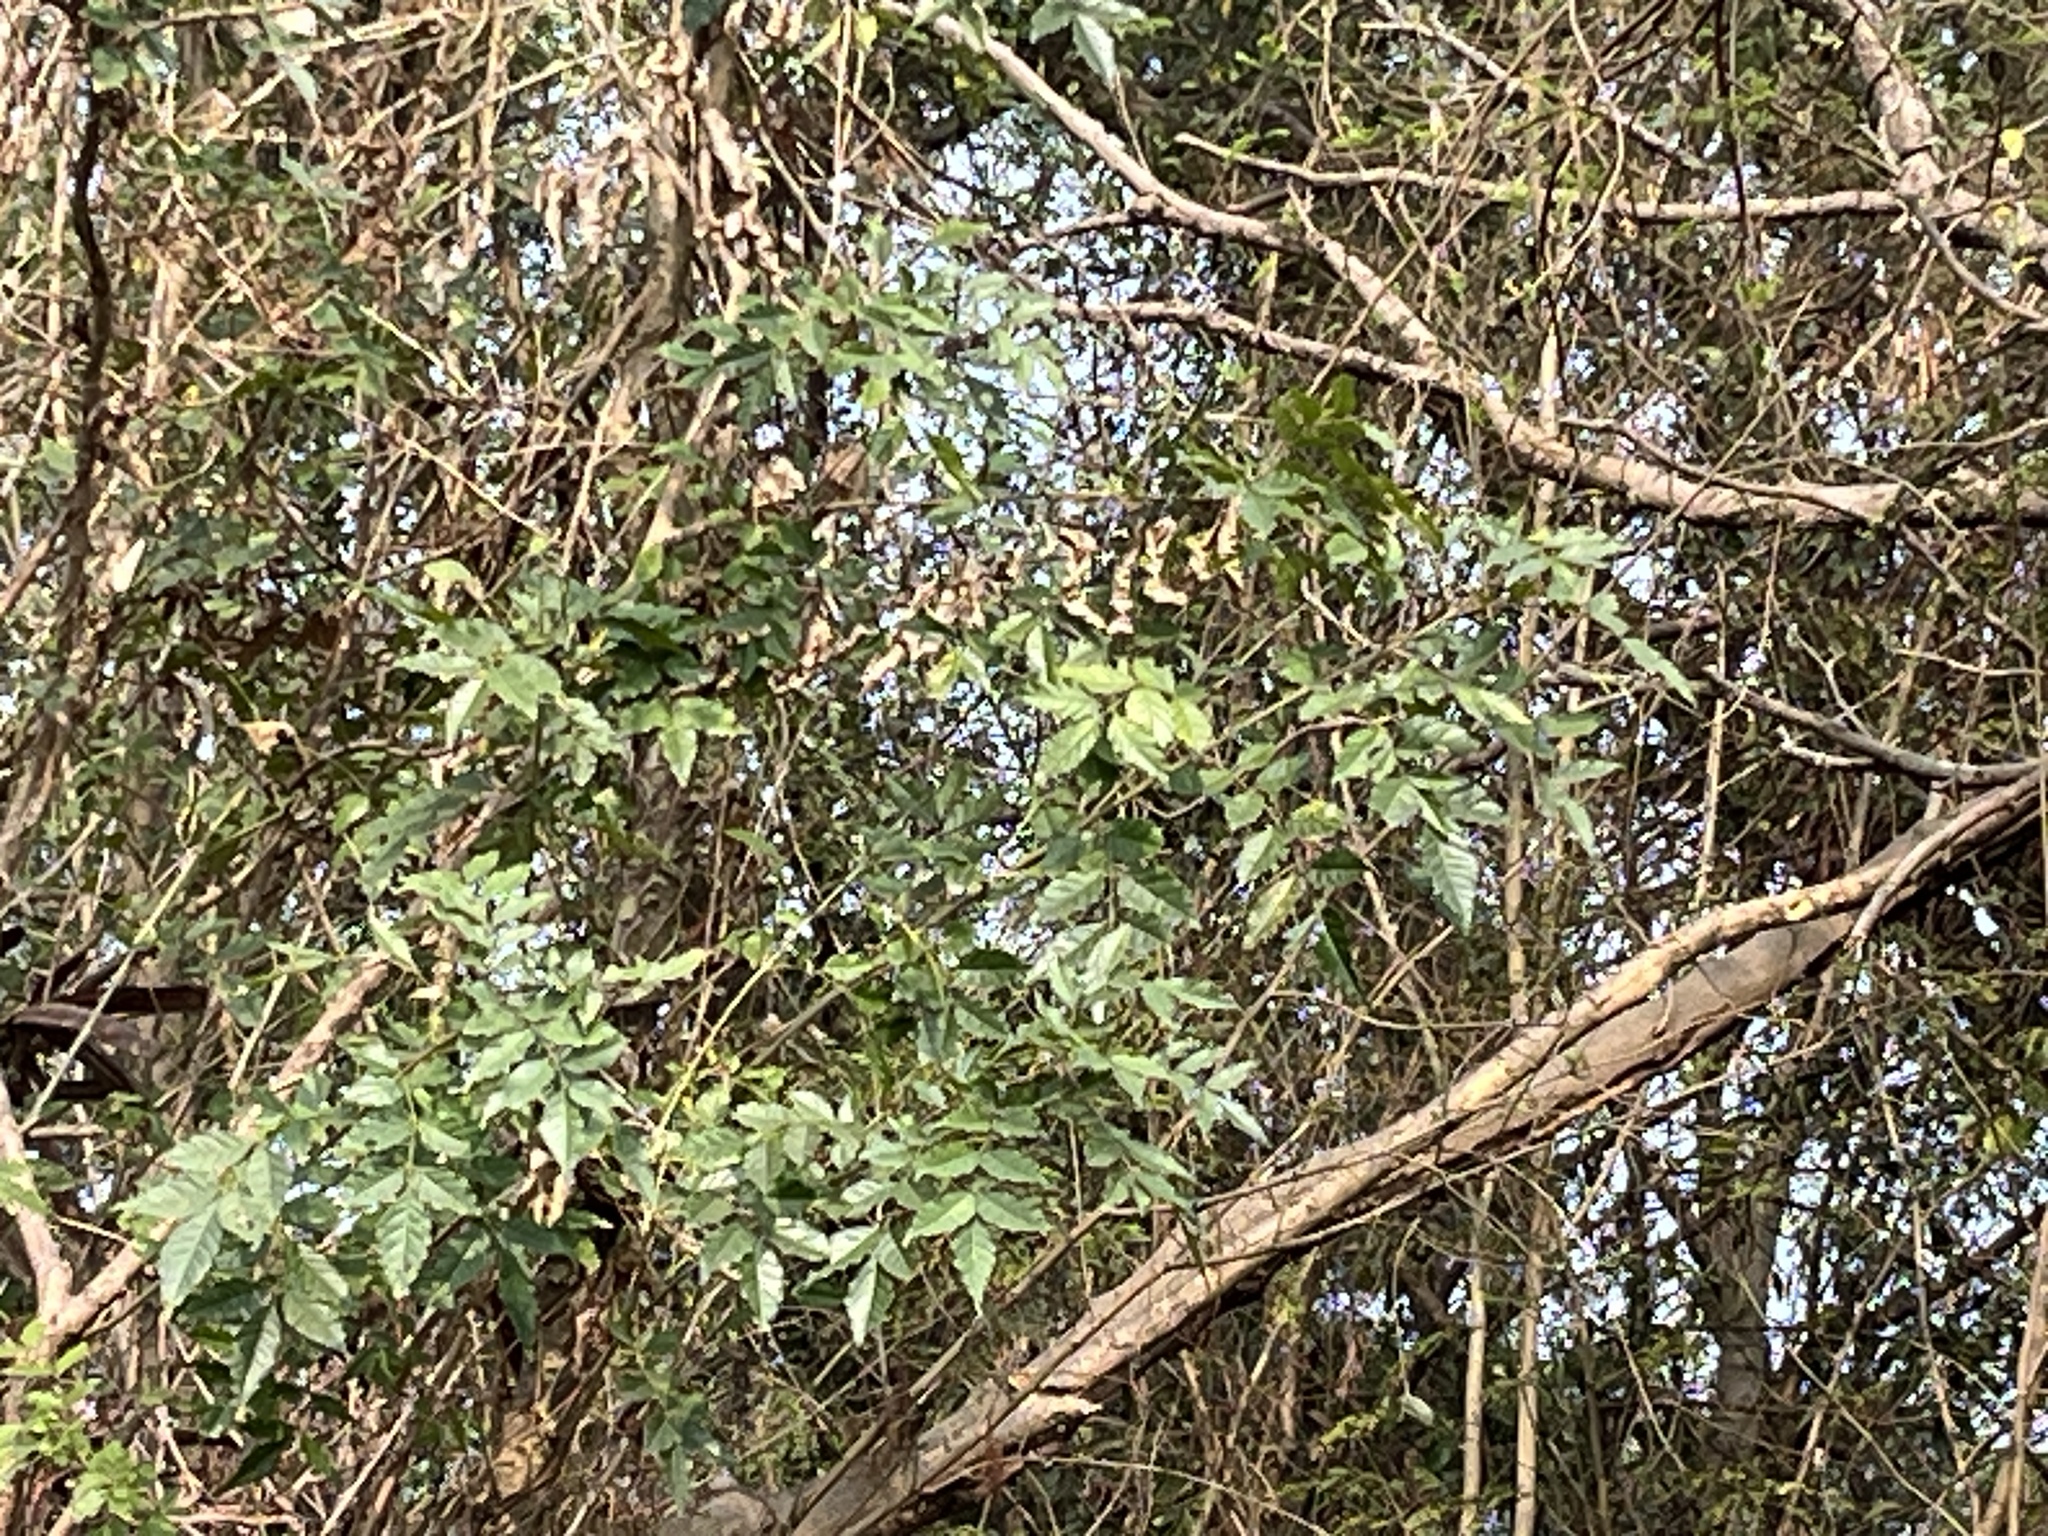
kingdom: Plantae
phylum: Tracheophyta
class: Magnoliopsida
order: Lamiales
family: Oleaceae
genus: Fraxinus
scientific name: Fraxinus griffithii
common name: Himalayan ash
